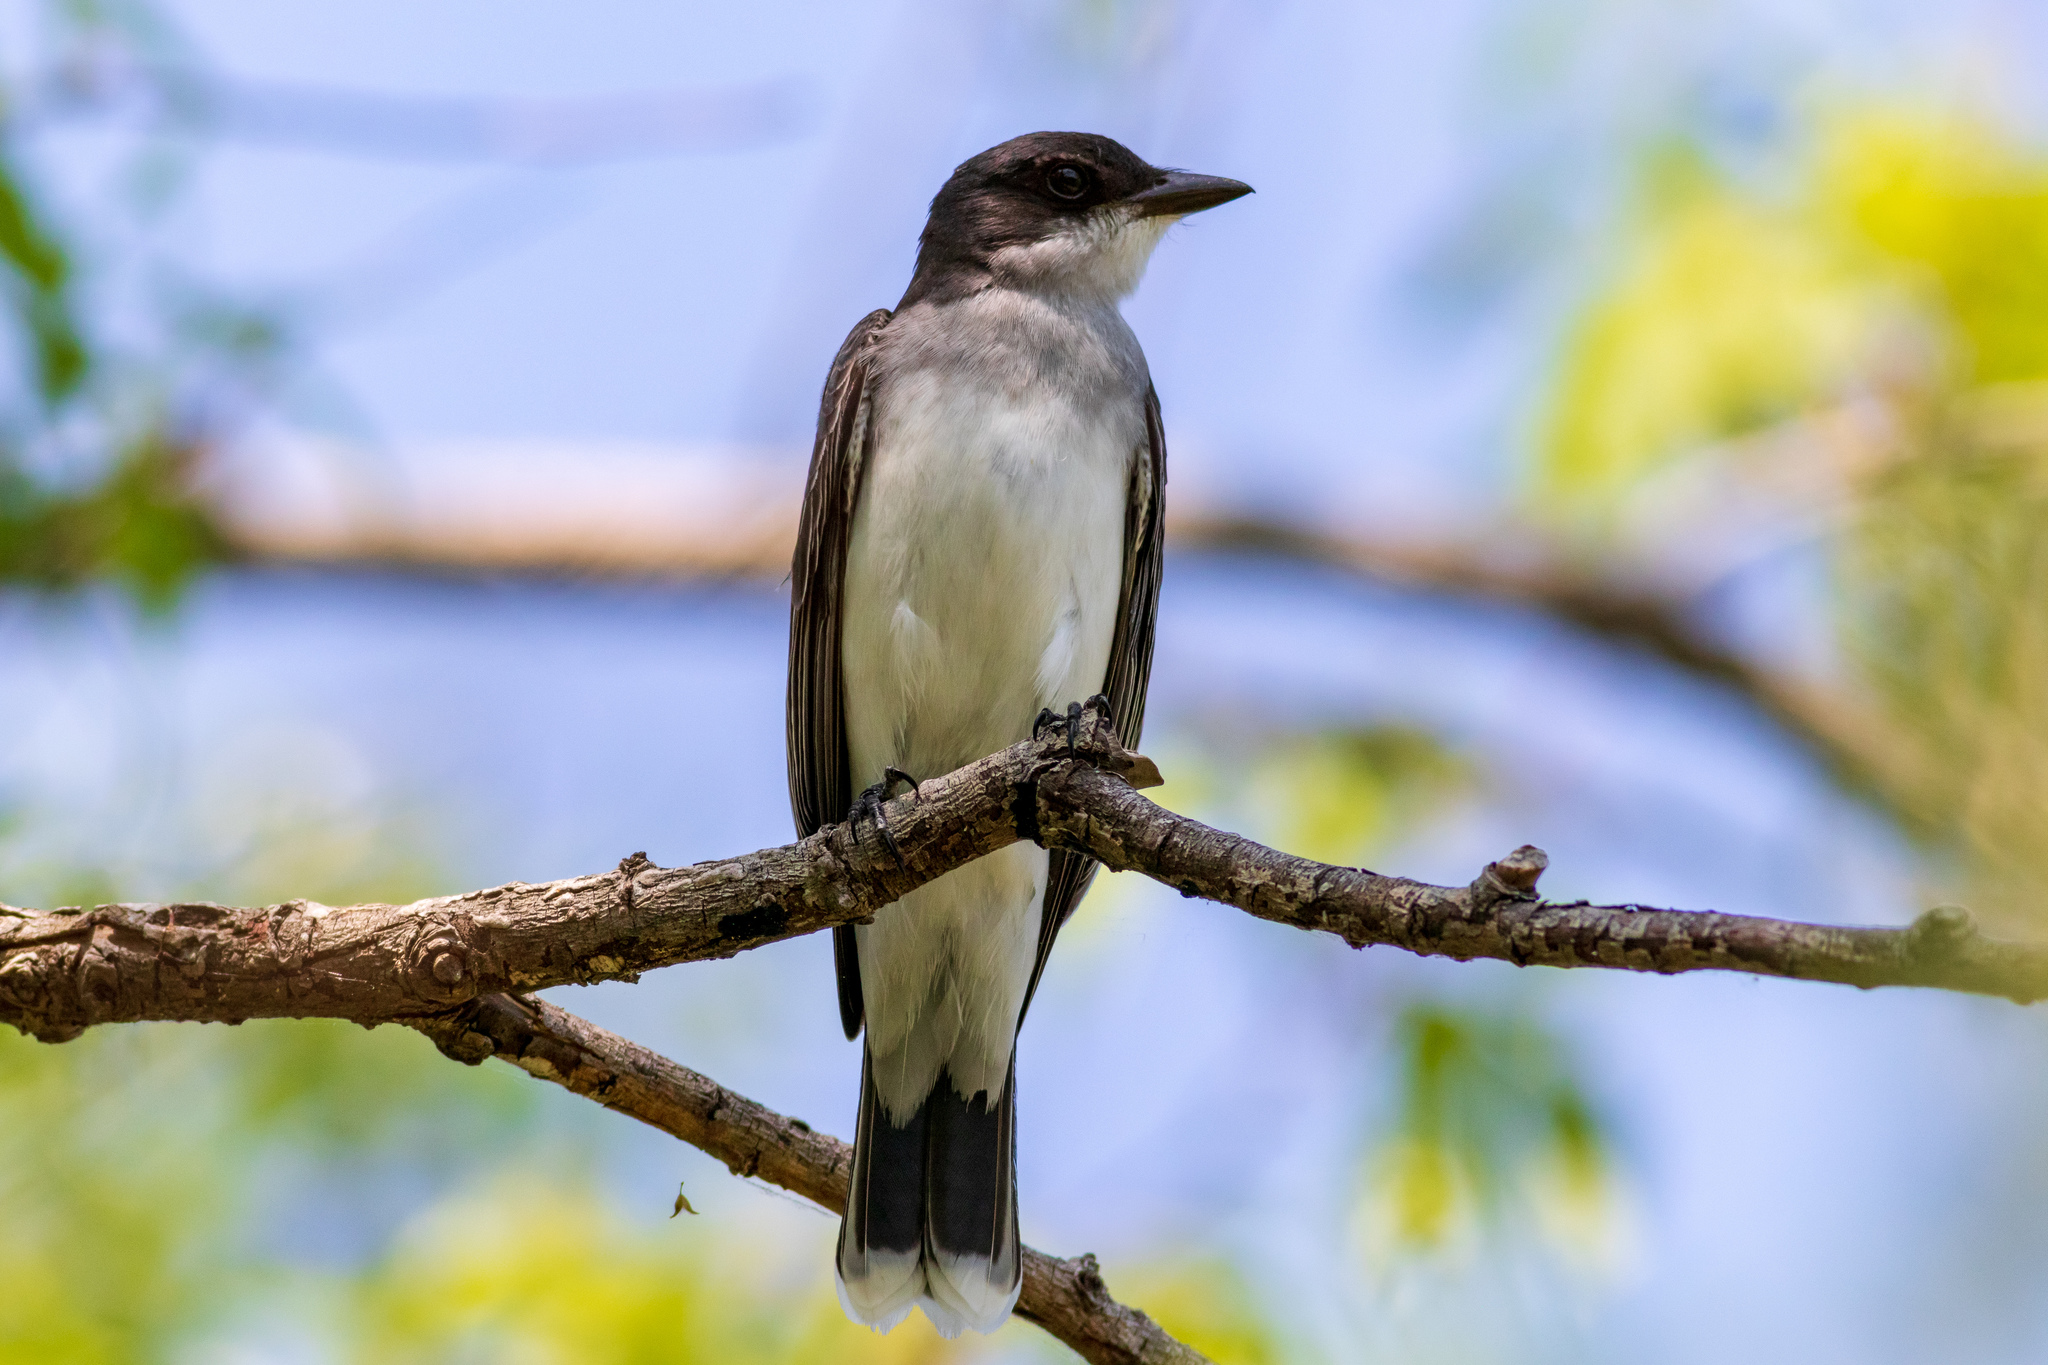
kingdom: Animalia
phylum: Chordata
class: Aves
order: Passeriformes
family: Tyrannidae
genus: Tyrannus
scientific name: Tyrannus tyrannus
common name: Eastern kingbird
